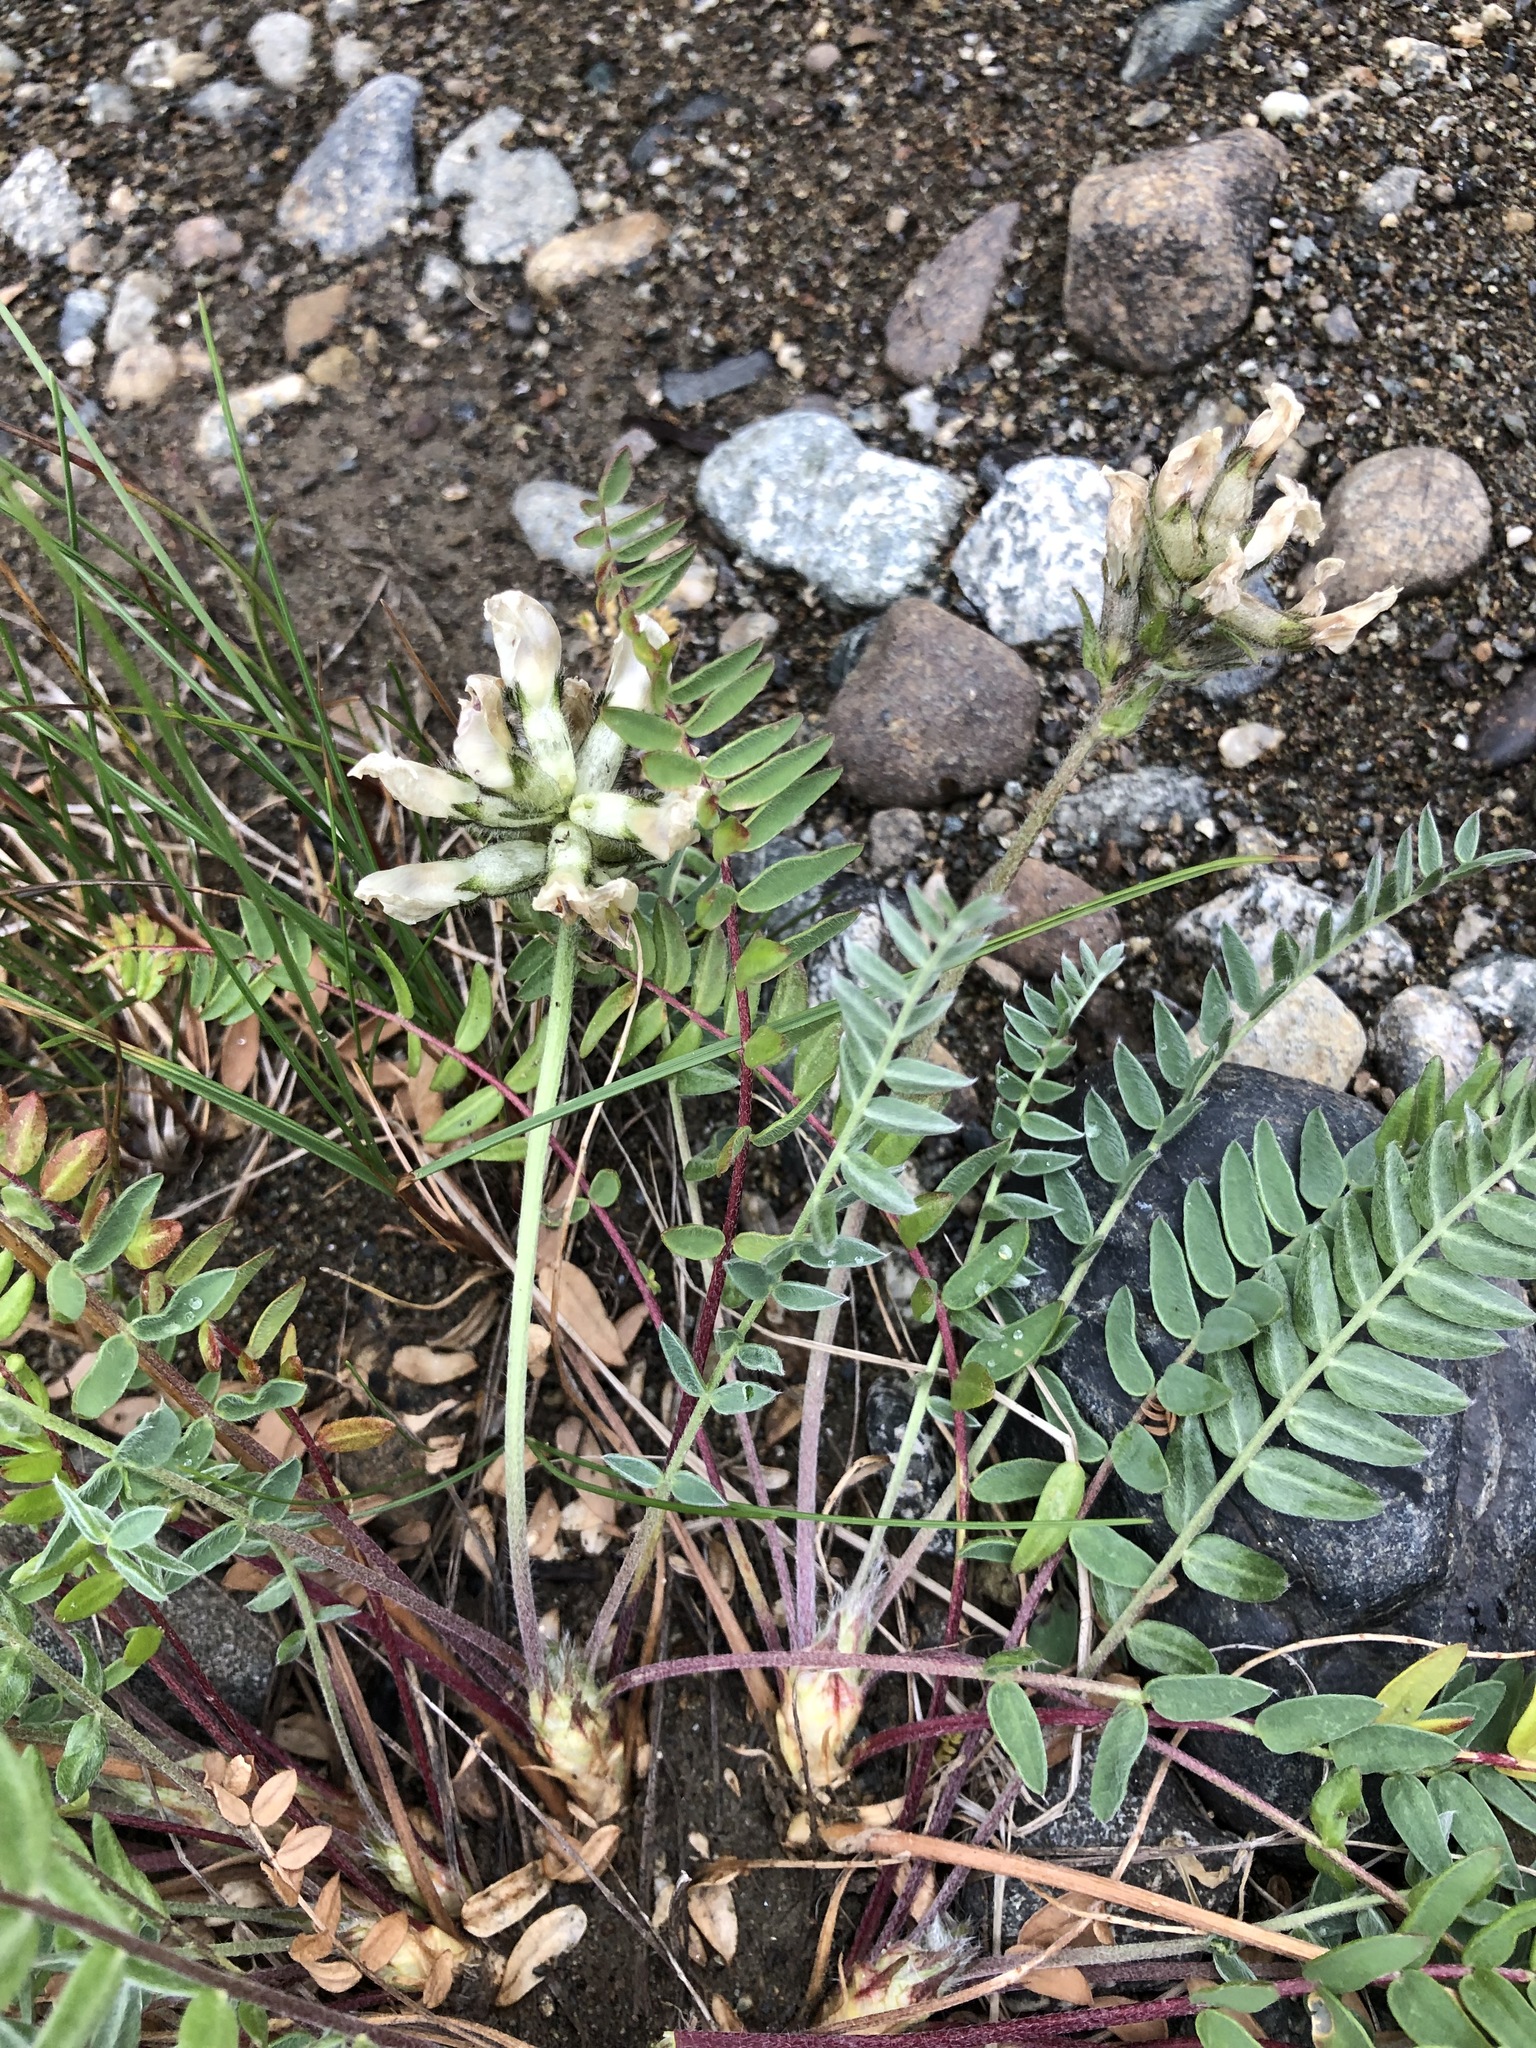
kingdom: Plantae
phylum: Tracheophyta
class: Magnoliopsida
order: Fabales
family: Fabaceae
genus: Oxytropis
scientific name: Oxytropis sordida
